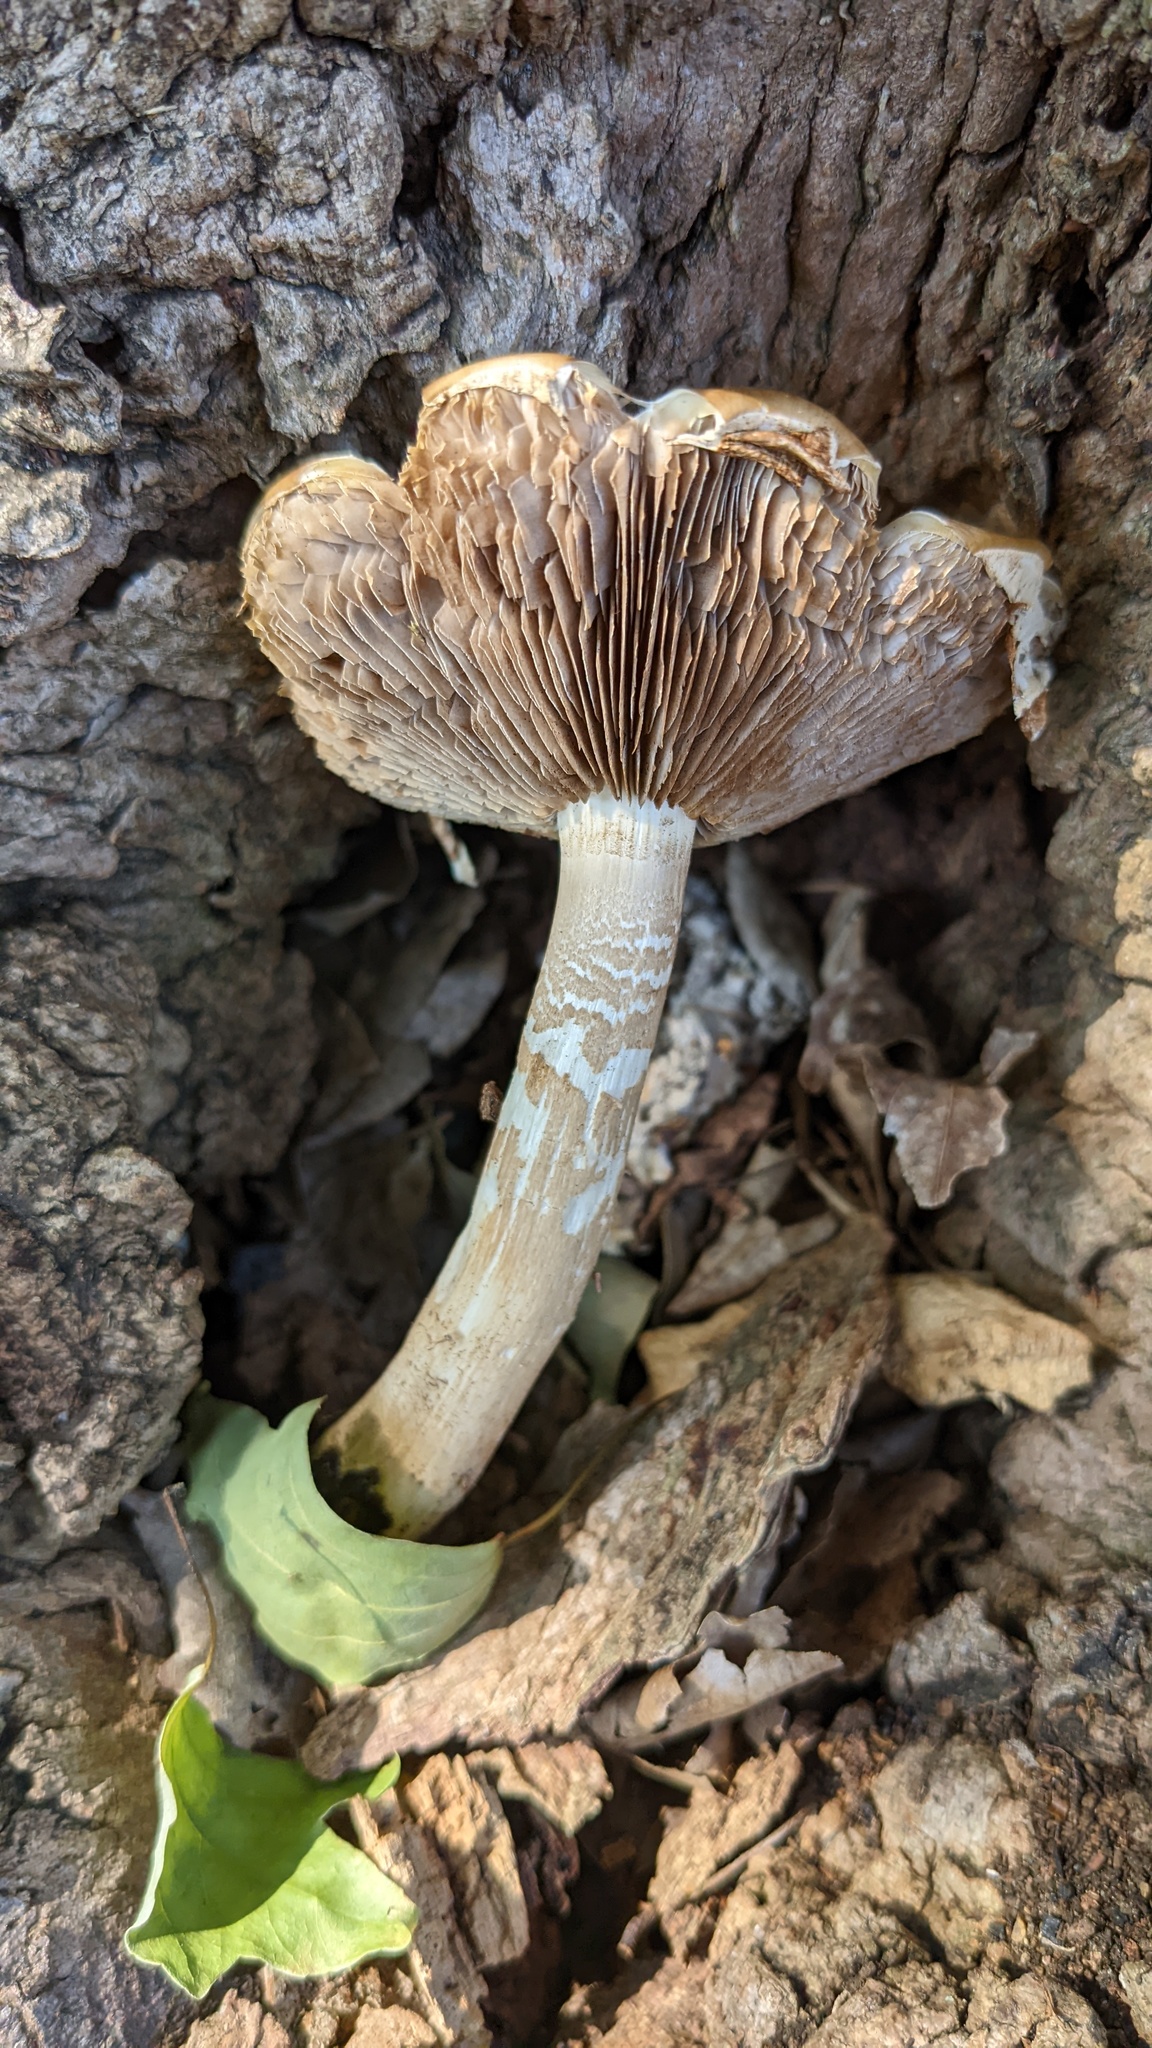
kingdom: Fungi
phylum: Basidiomycota
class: Agaricomycetes
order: Agaricales
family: Tubariaceae
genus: Cyclocybe
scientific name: Cyclocybe cylindracea
